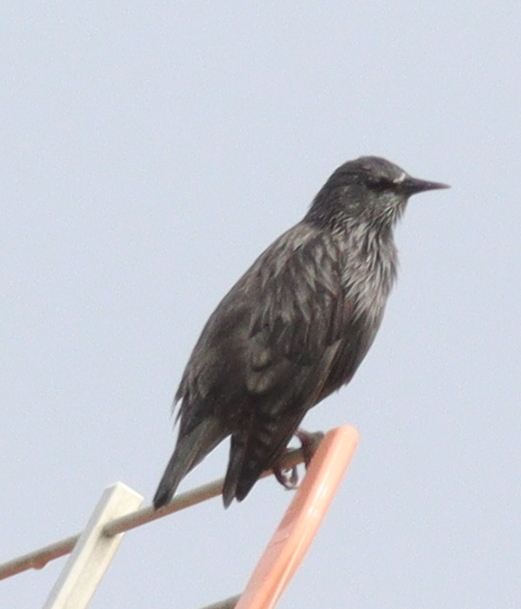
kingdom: Animalia
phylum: Chordata
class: Aves
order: Passeriformes
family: Sturnidae
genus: Sturnus
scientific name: Sturnus unicolor
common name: Spotless starling
